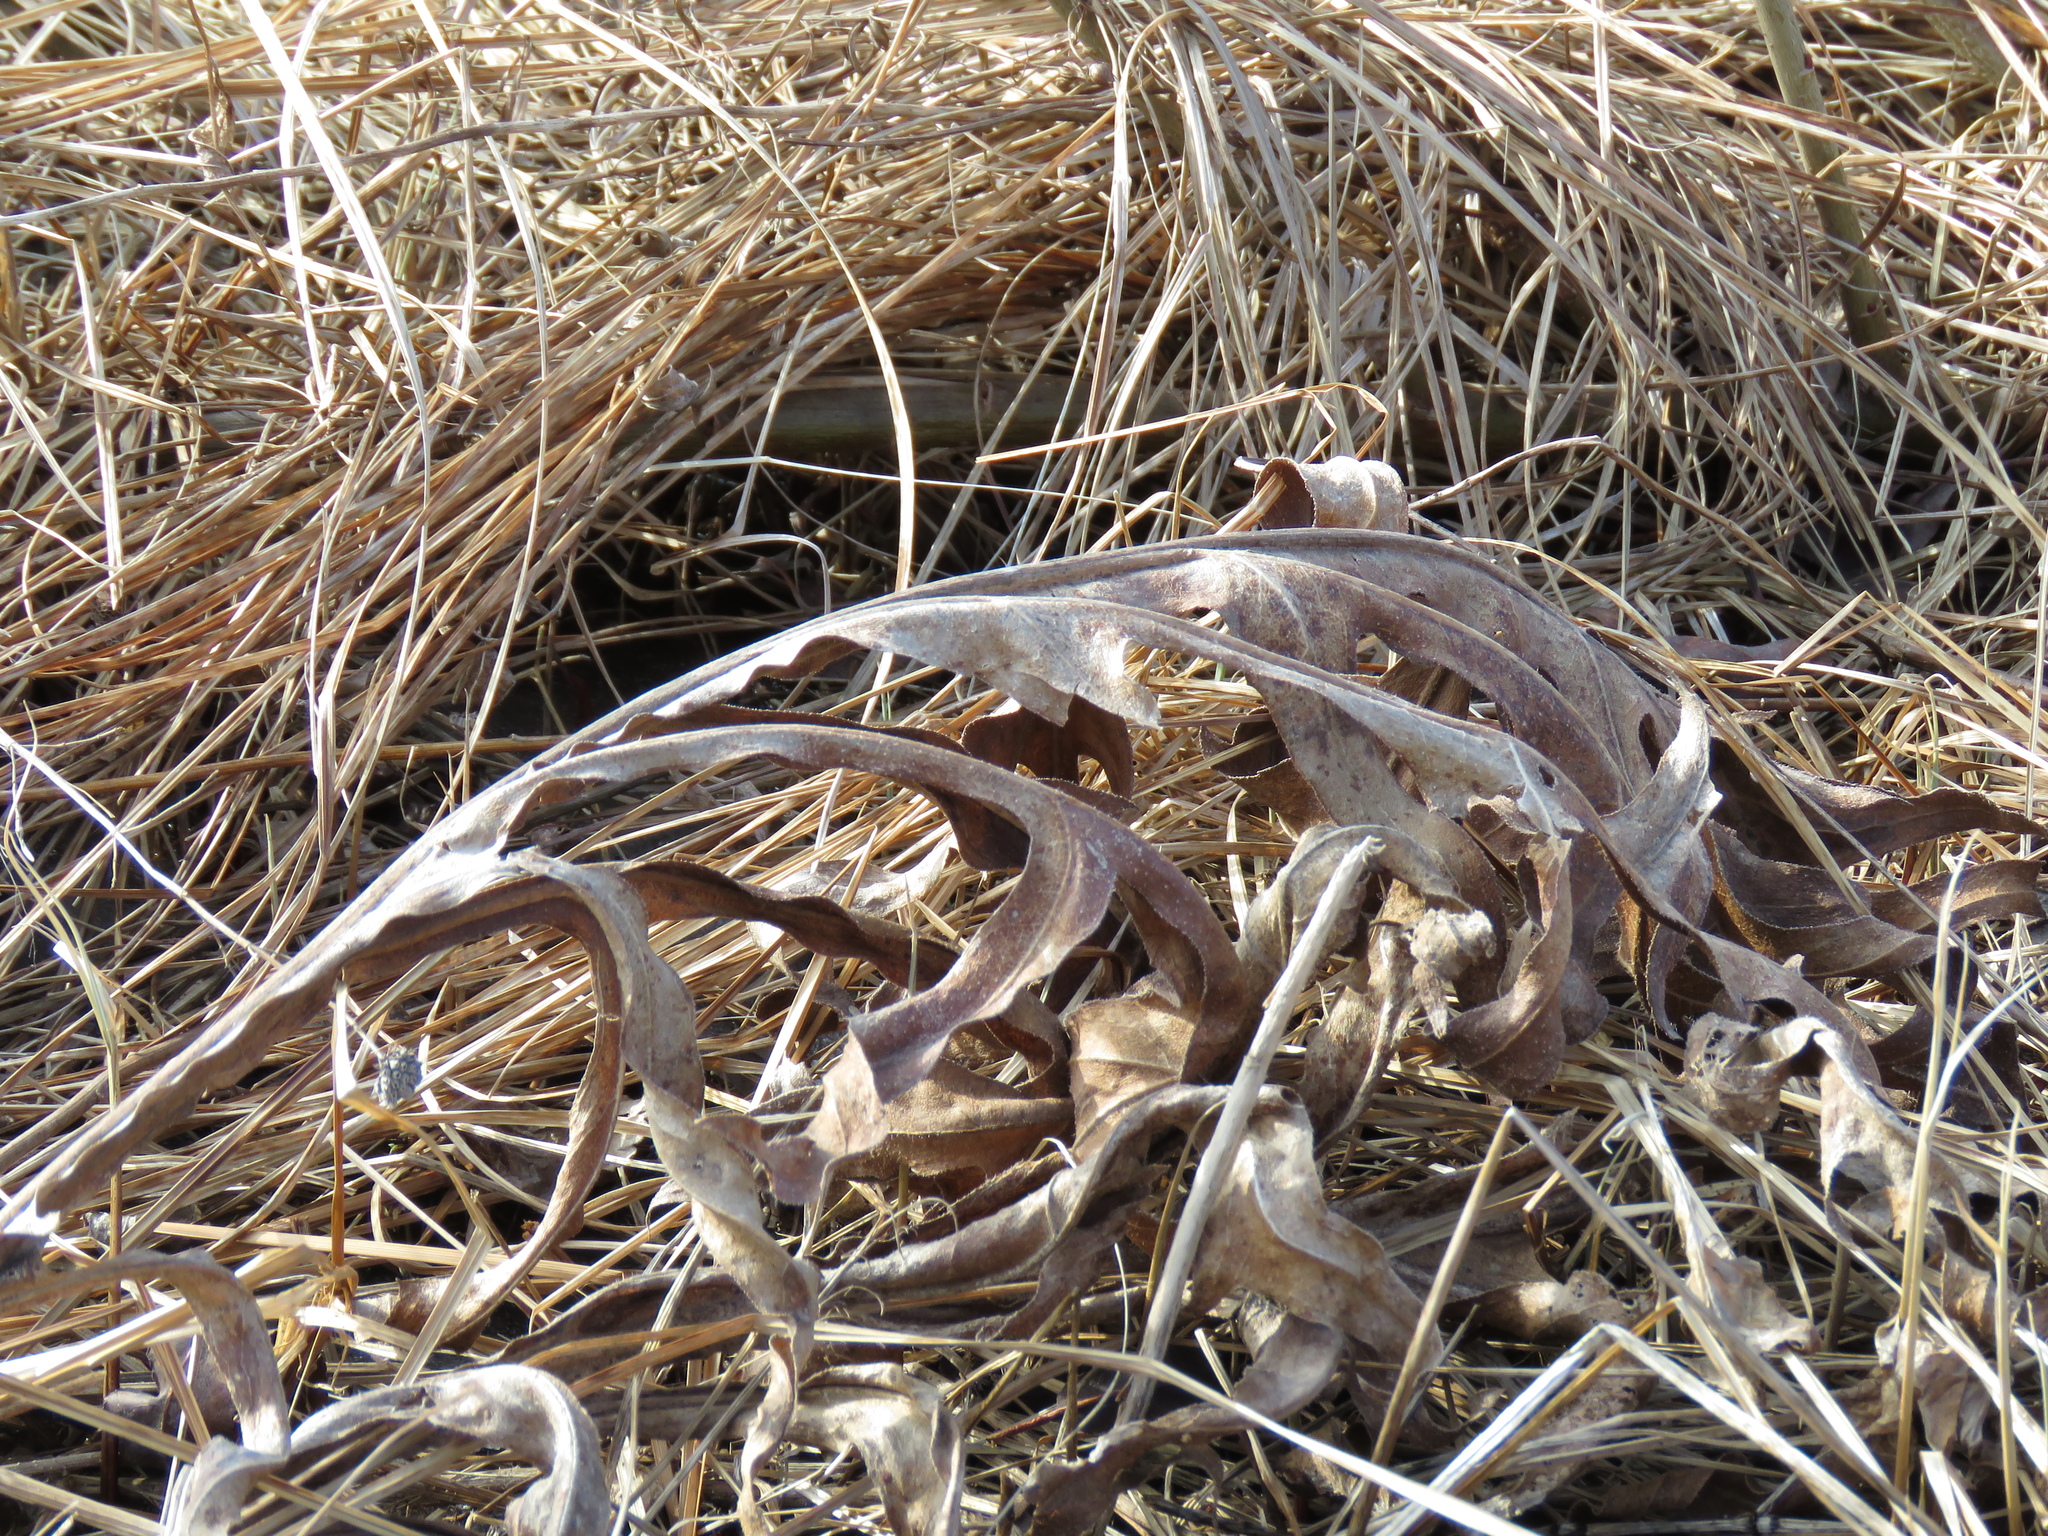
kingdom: Plantae
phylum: Tracheophyta
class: Magnoliopsida
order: Asterales
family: Asteraceae
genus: Silphium
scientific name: Silphium laciniatum
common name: Polarplant
